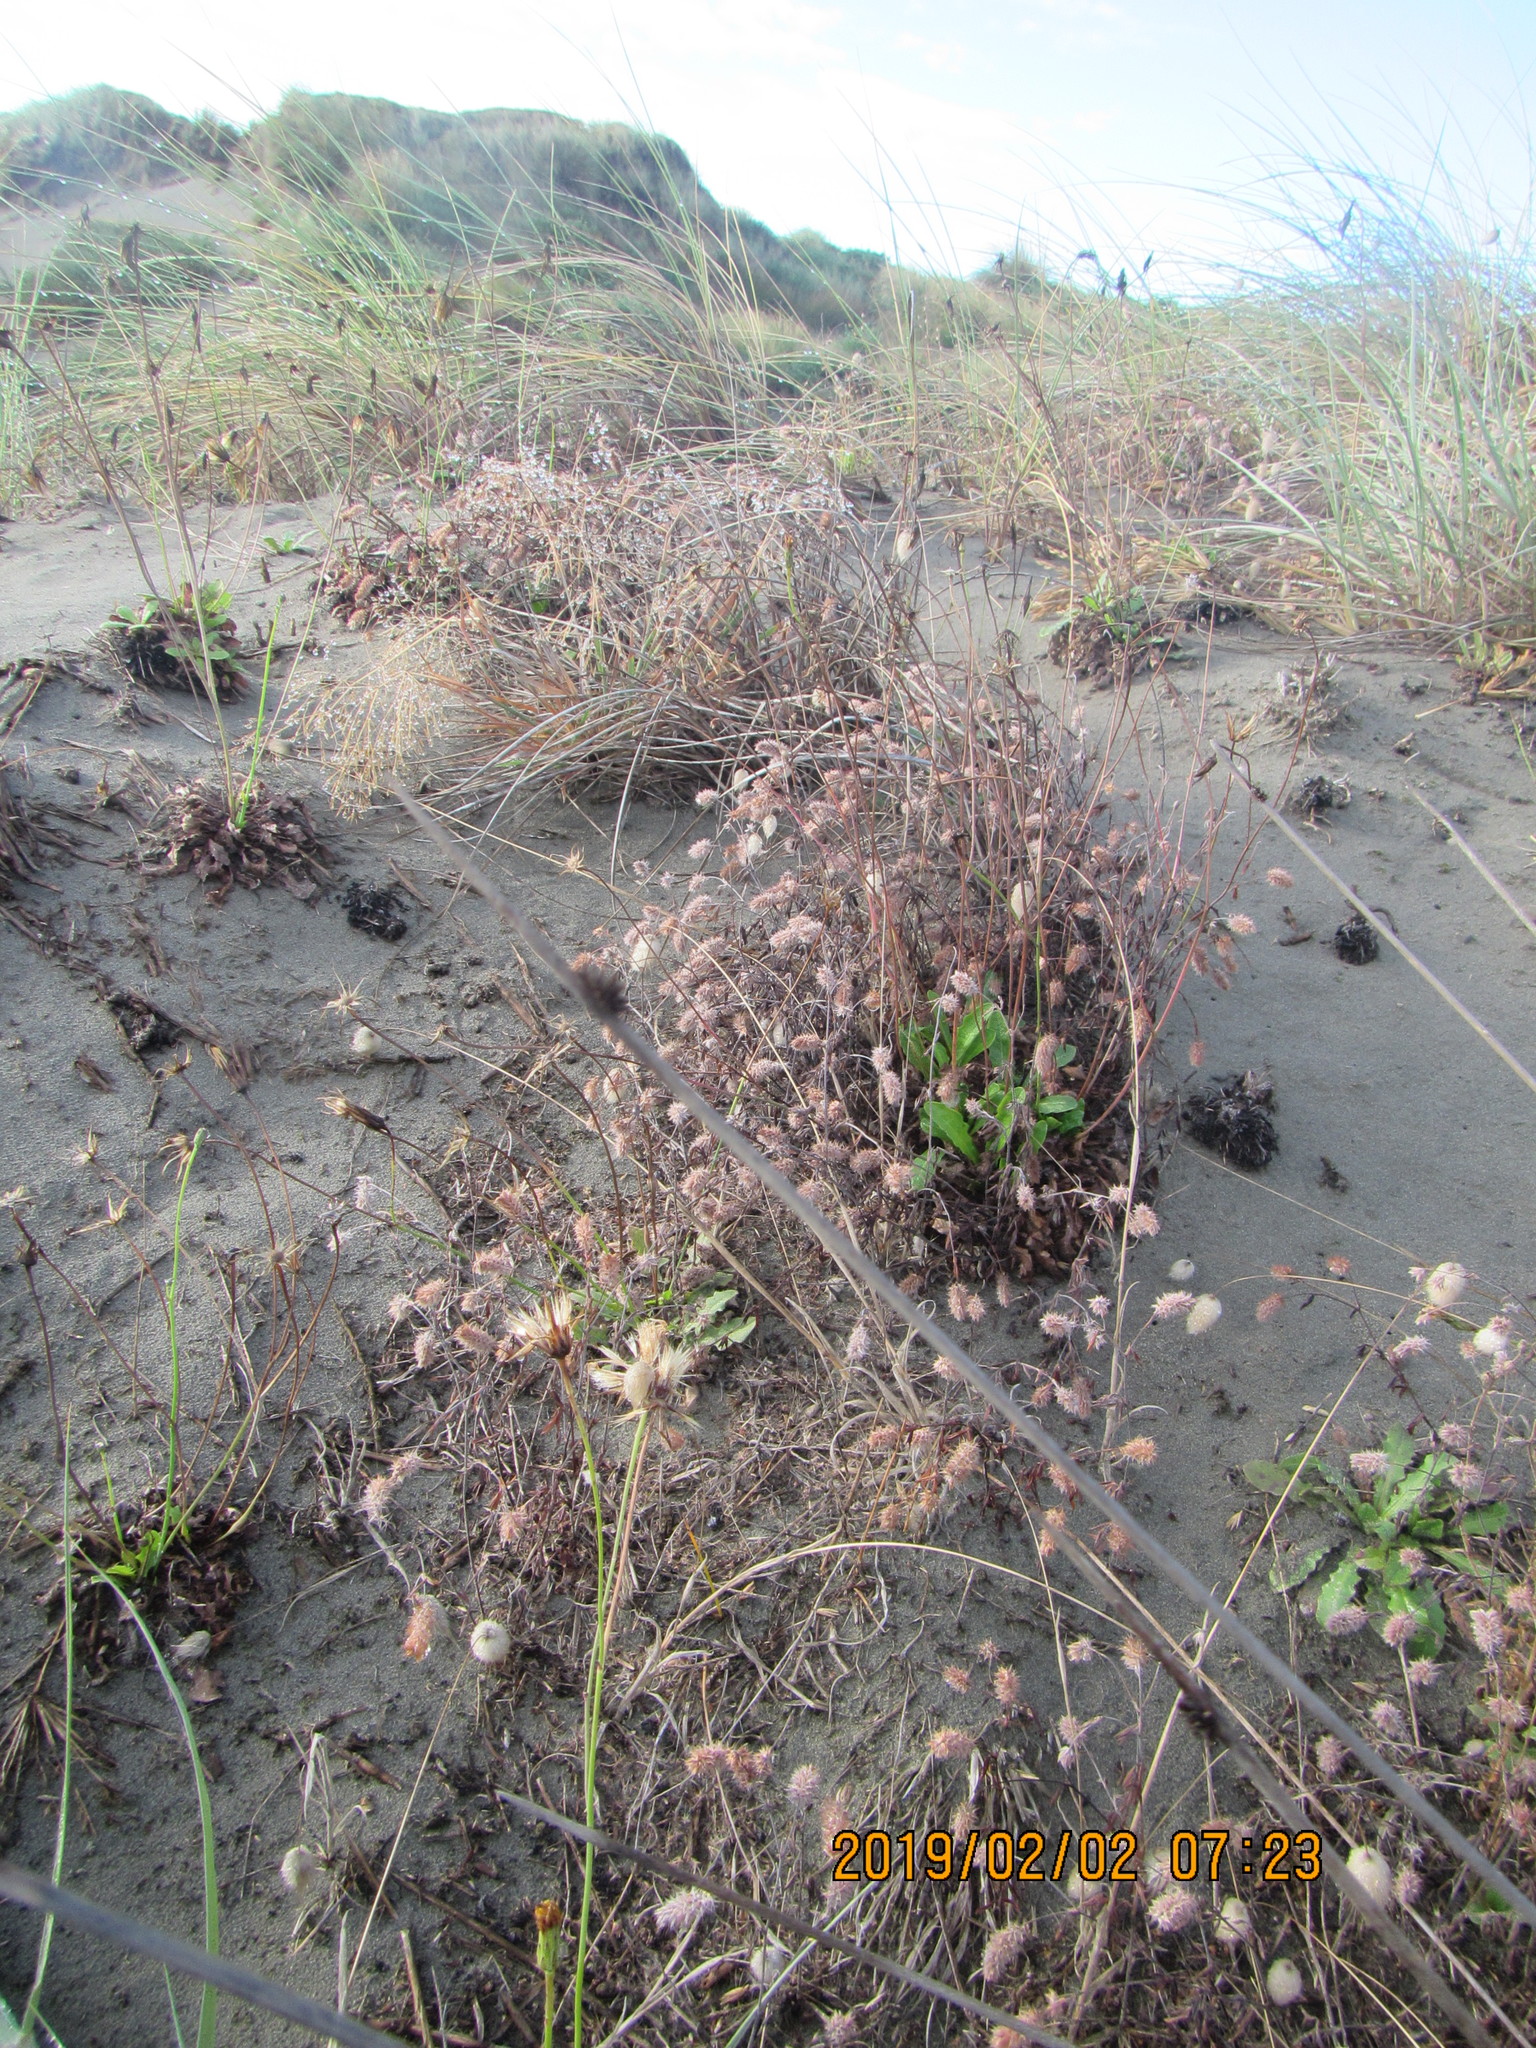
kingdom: Plantae
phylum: Tracheophyta
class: Magnoliopsida
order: Fabales
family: Fabaceae
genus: Trifolium
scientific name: Trifolium arvense
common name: Hare's-foot clover
